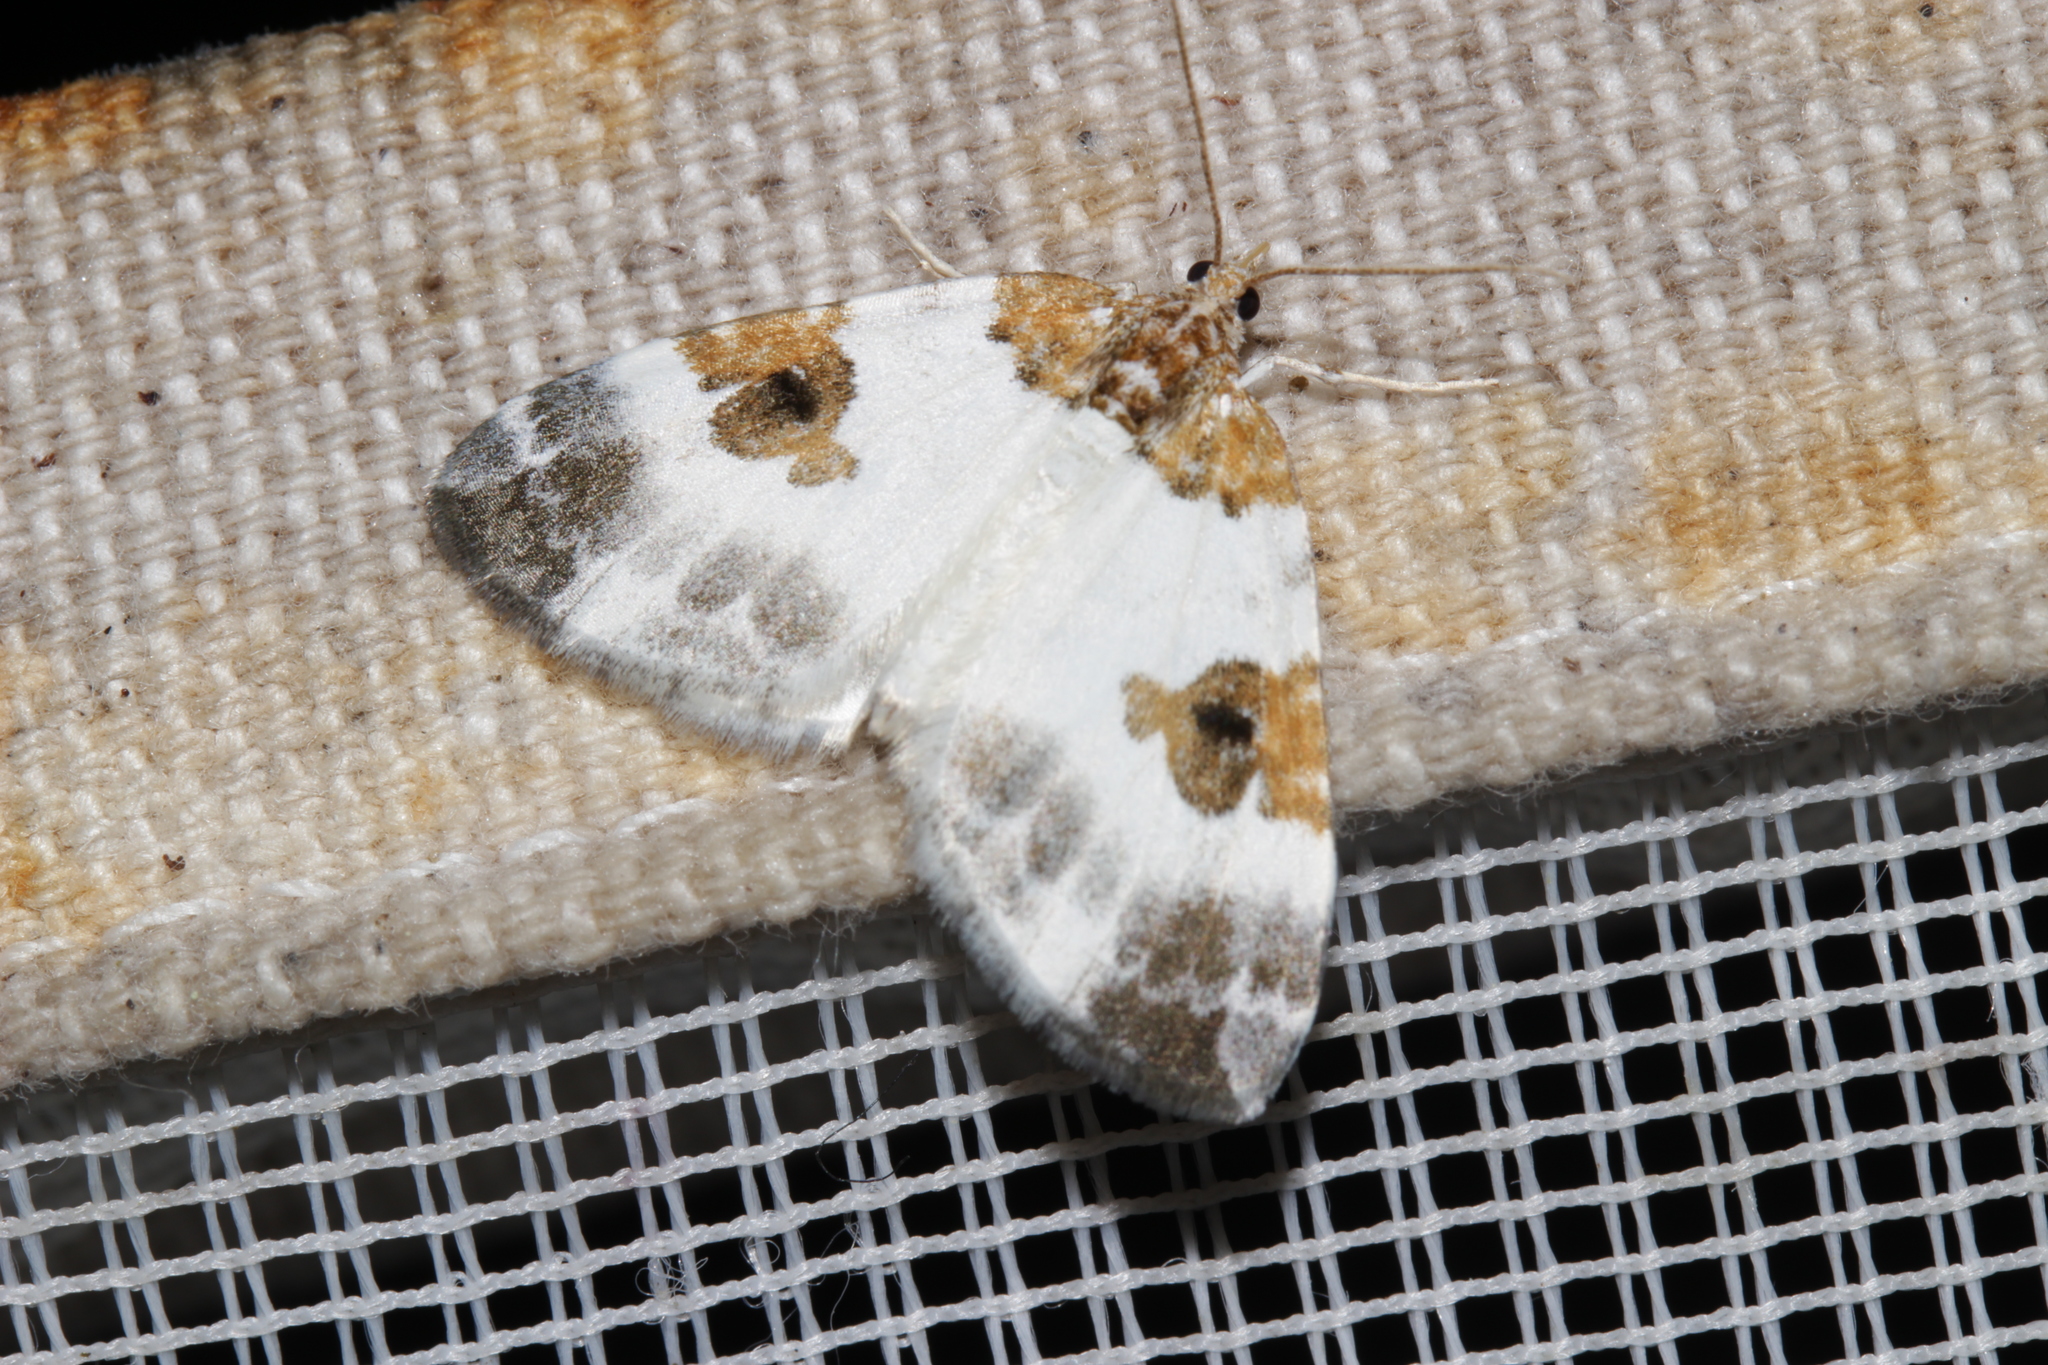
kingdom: Animalia
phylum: Arthropoda
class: Insecta
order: Lepidoptera
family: Geometridae
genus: Plemyria
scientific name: Plemyria rubiginata
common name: Blue-bordered carpet
